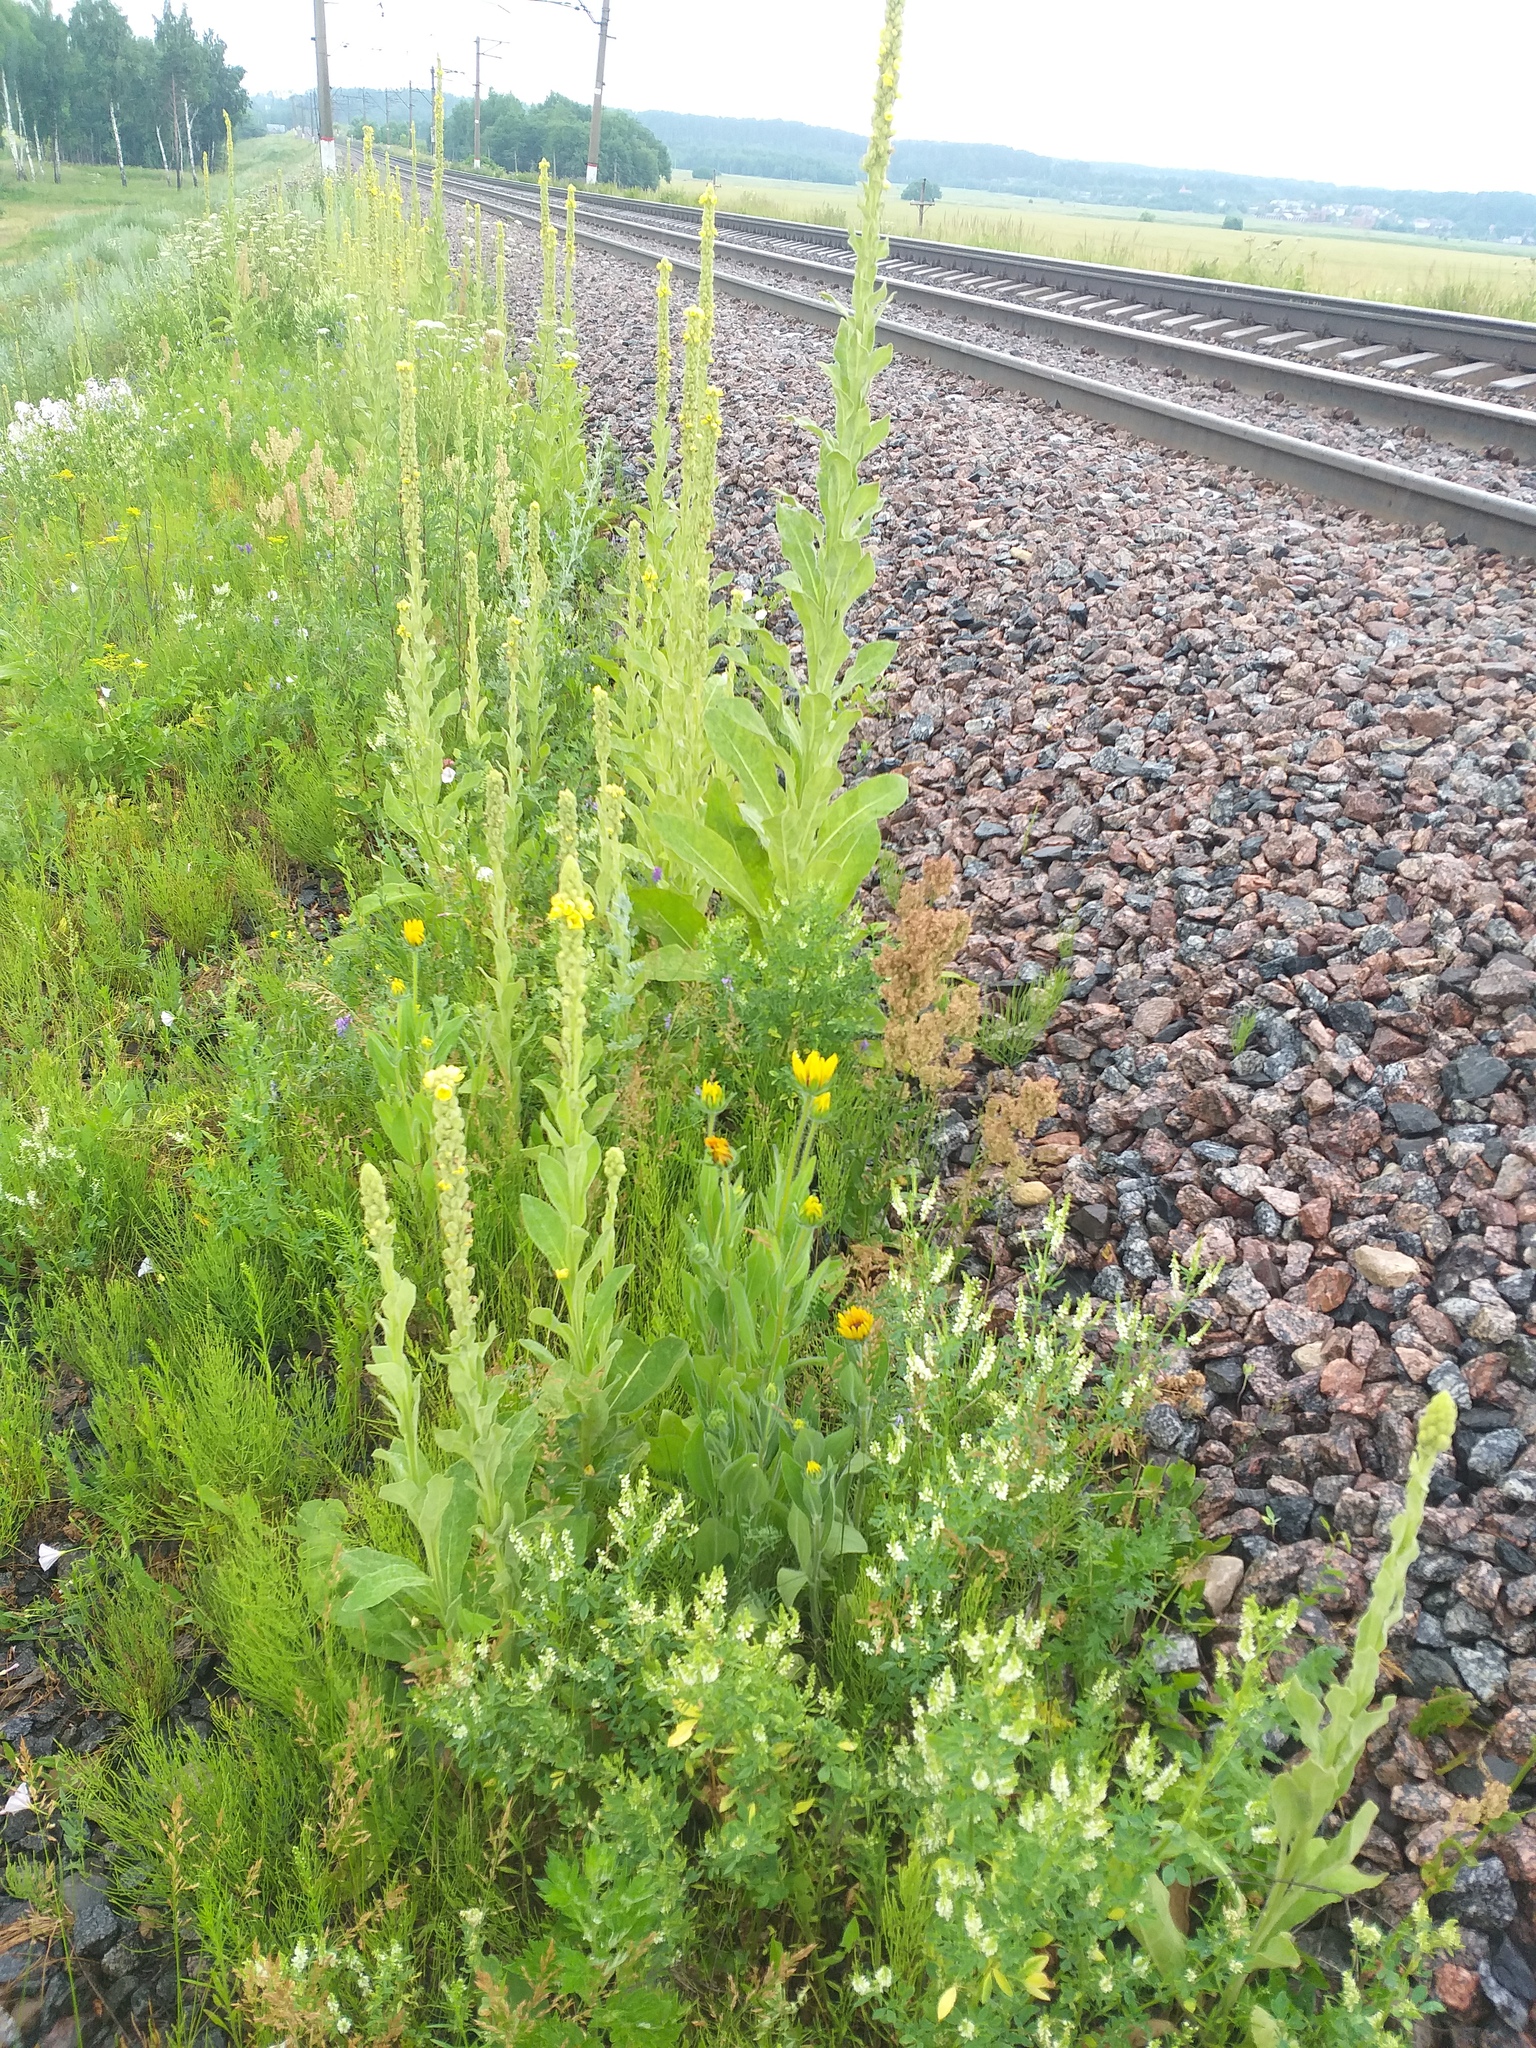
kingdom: Plantae
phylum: Tracheophyta
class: Magnoliopsida
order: Lamiales
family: Scrophulariaceae
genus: Verbascum
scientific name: Verbascum thapsus
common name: Common mullein
